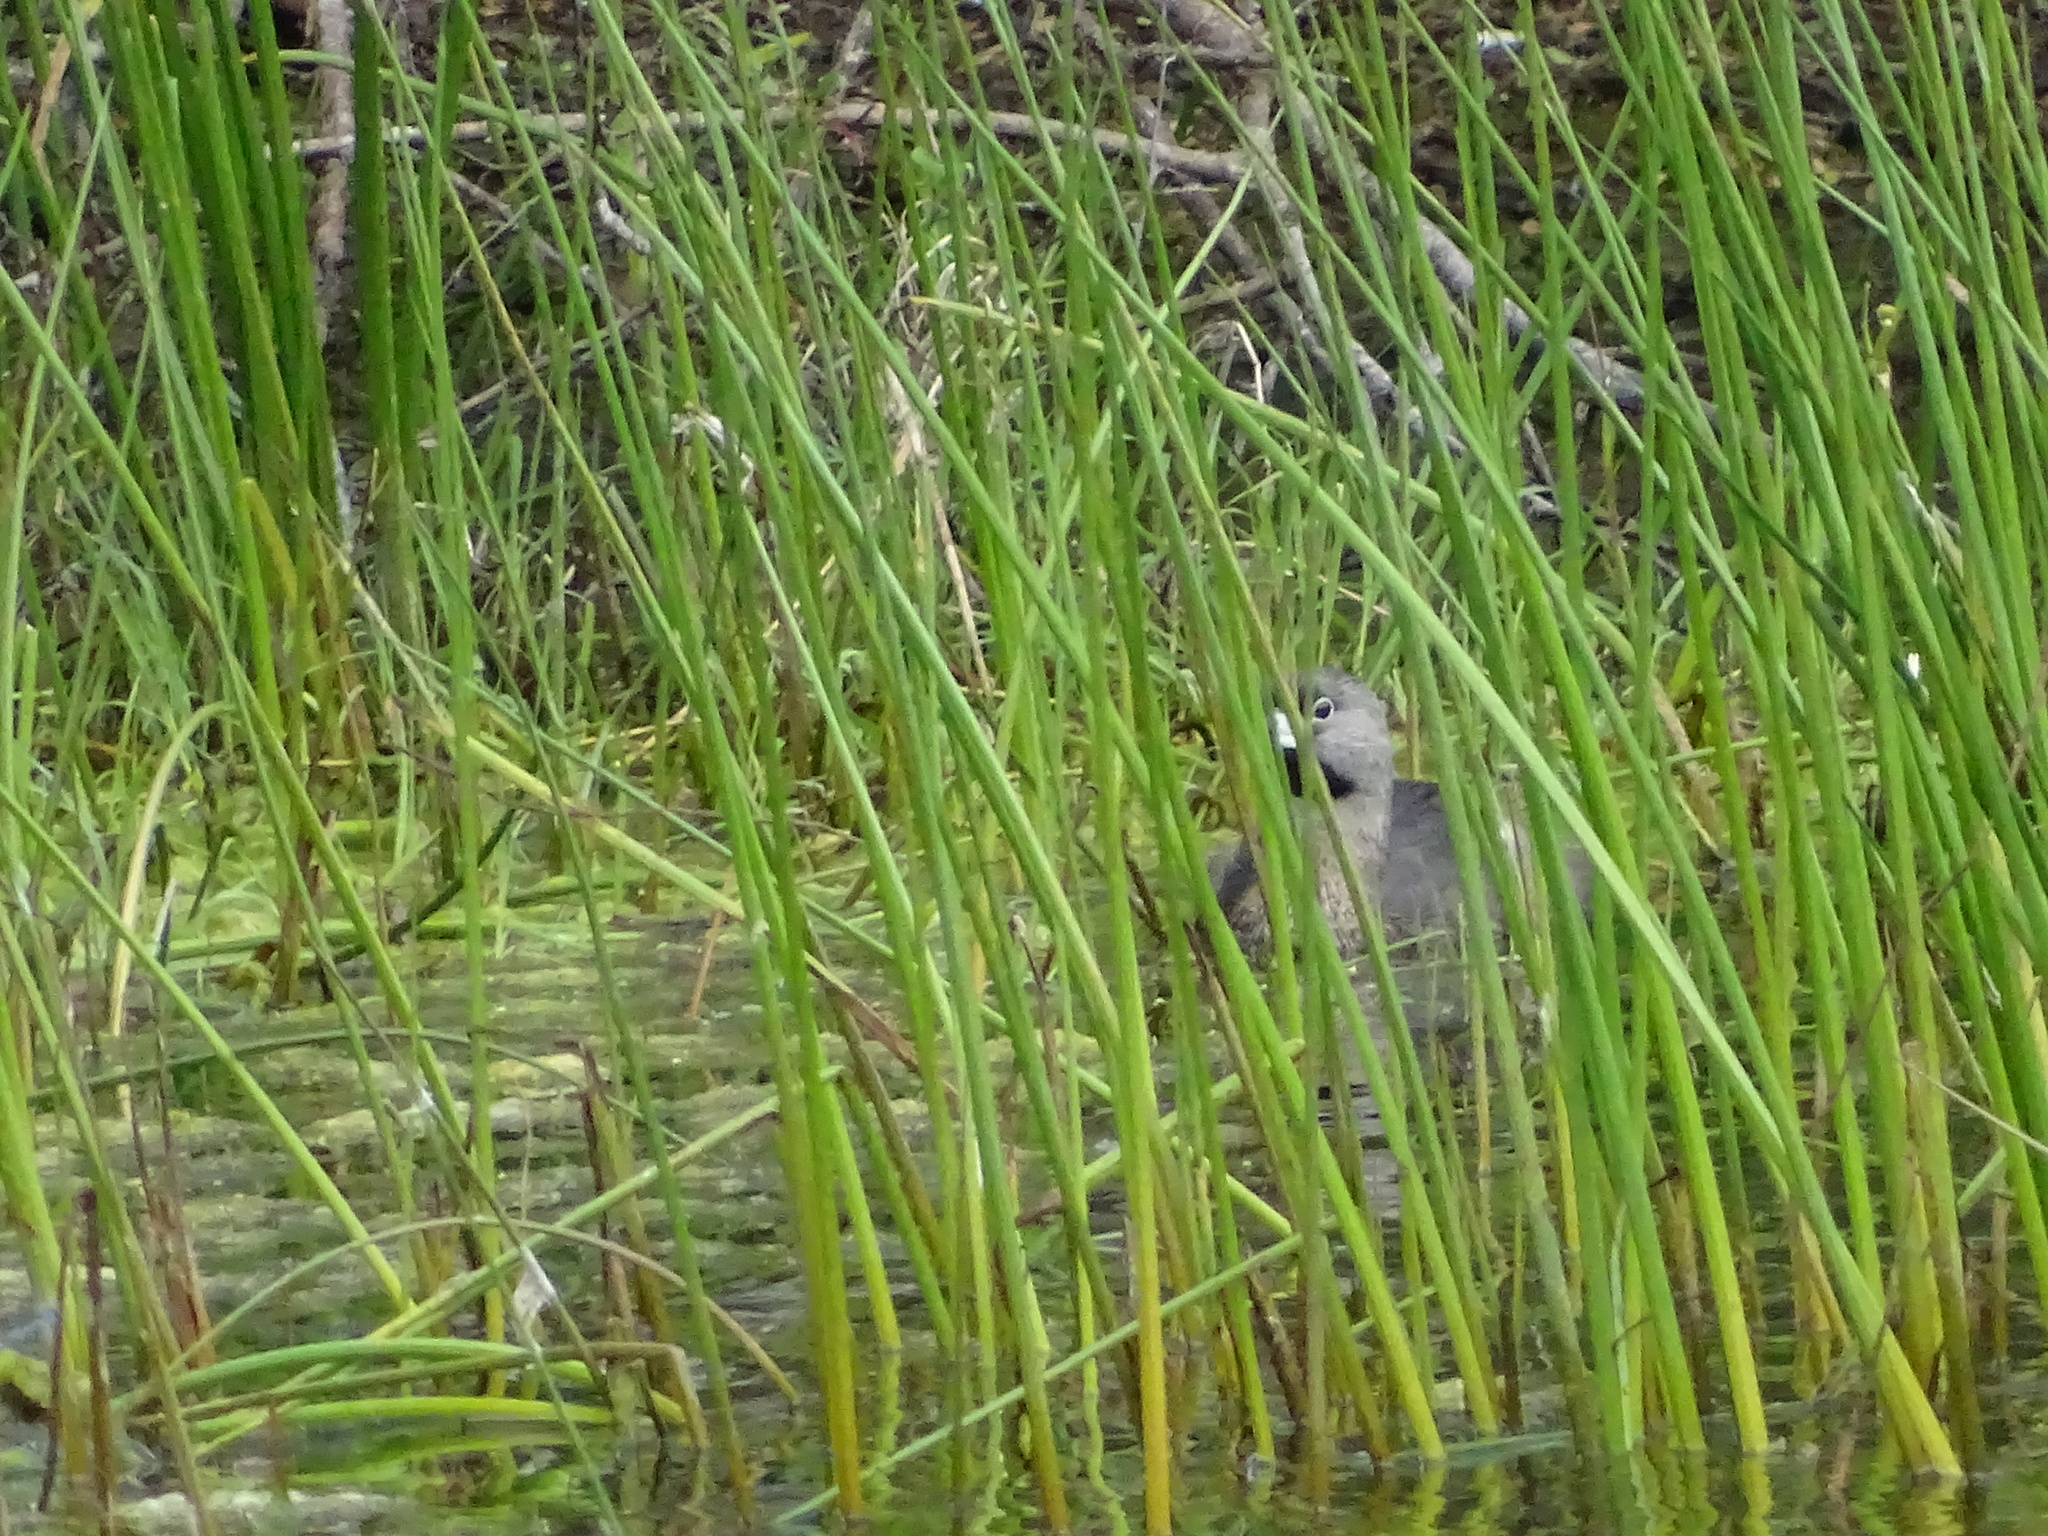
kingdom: Animalia
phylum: Chordata
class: Aves
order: Podicipediformes
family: Podicipedidae
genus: Podilymbus
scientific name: Podilymbus podiceps
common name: Pied-billed grebe
